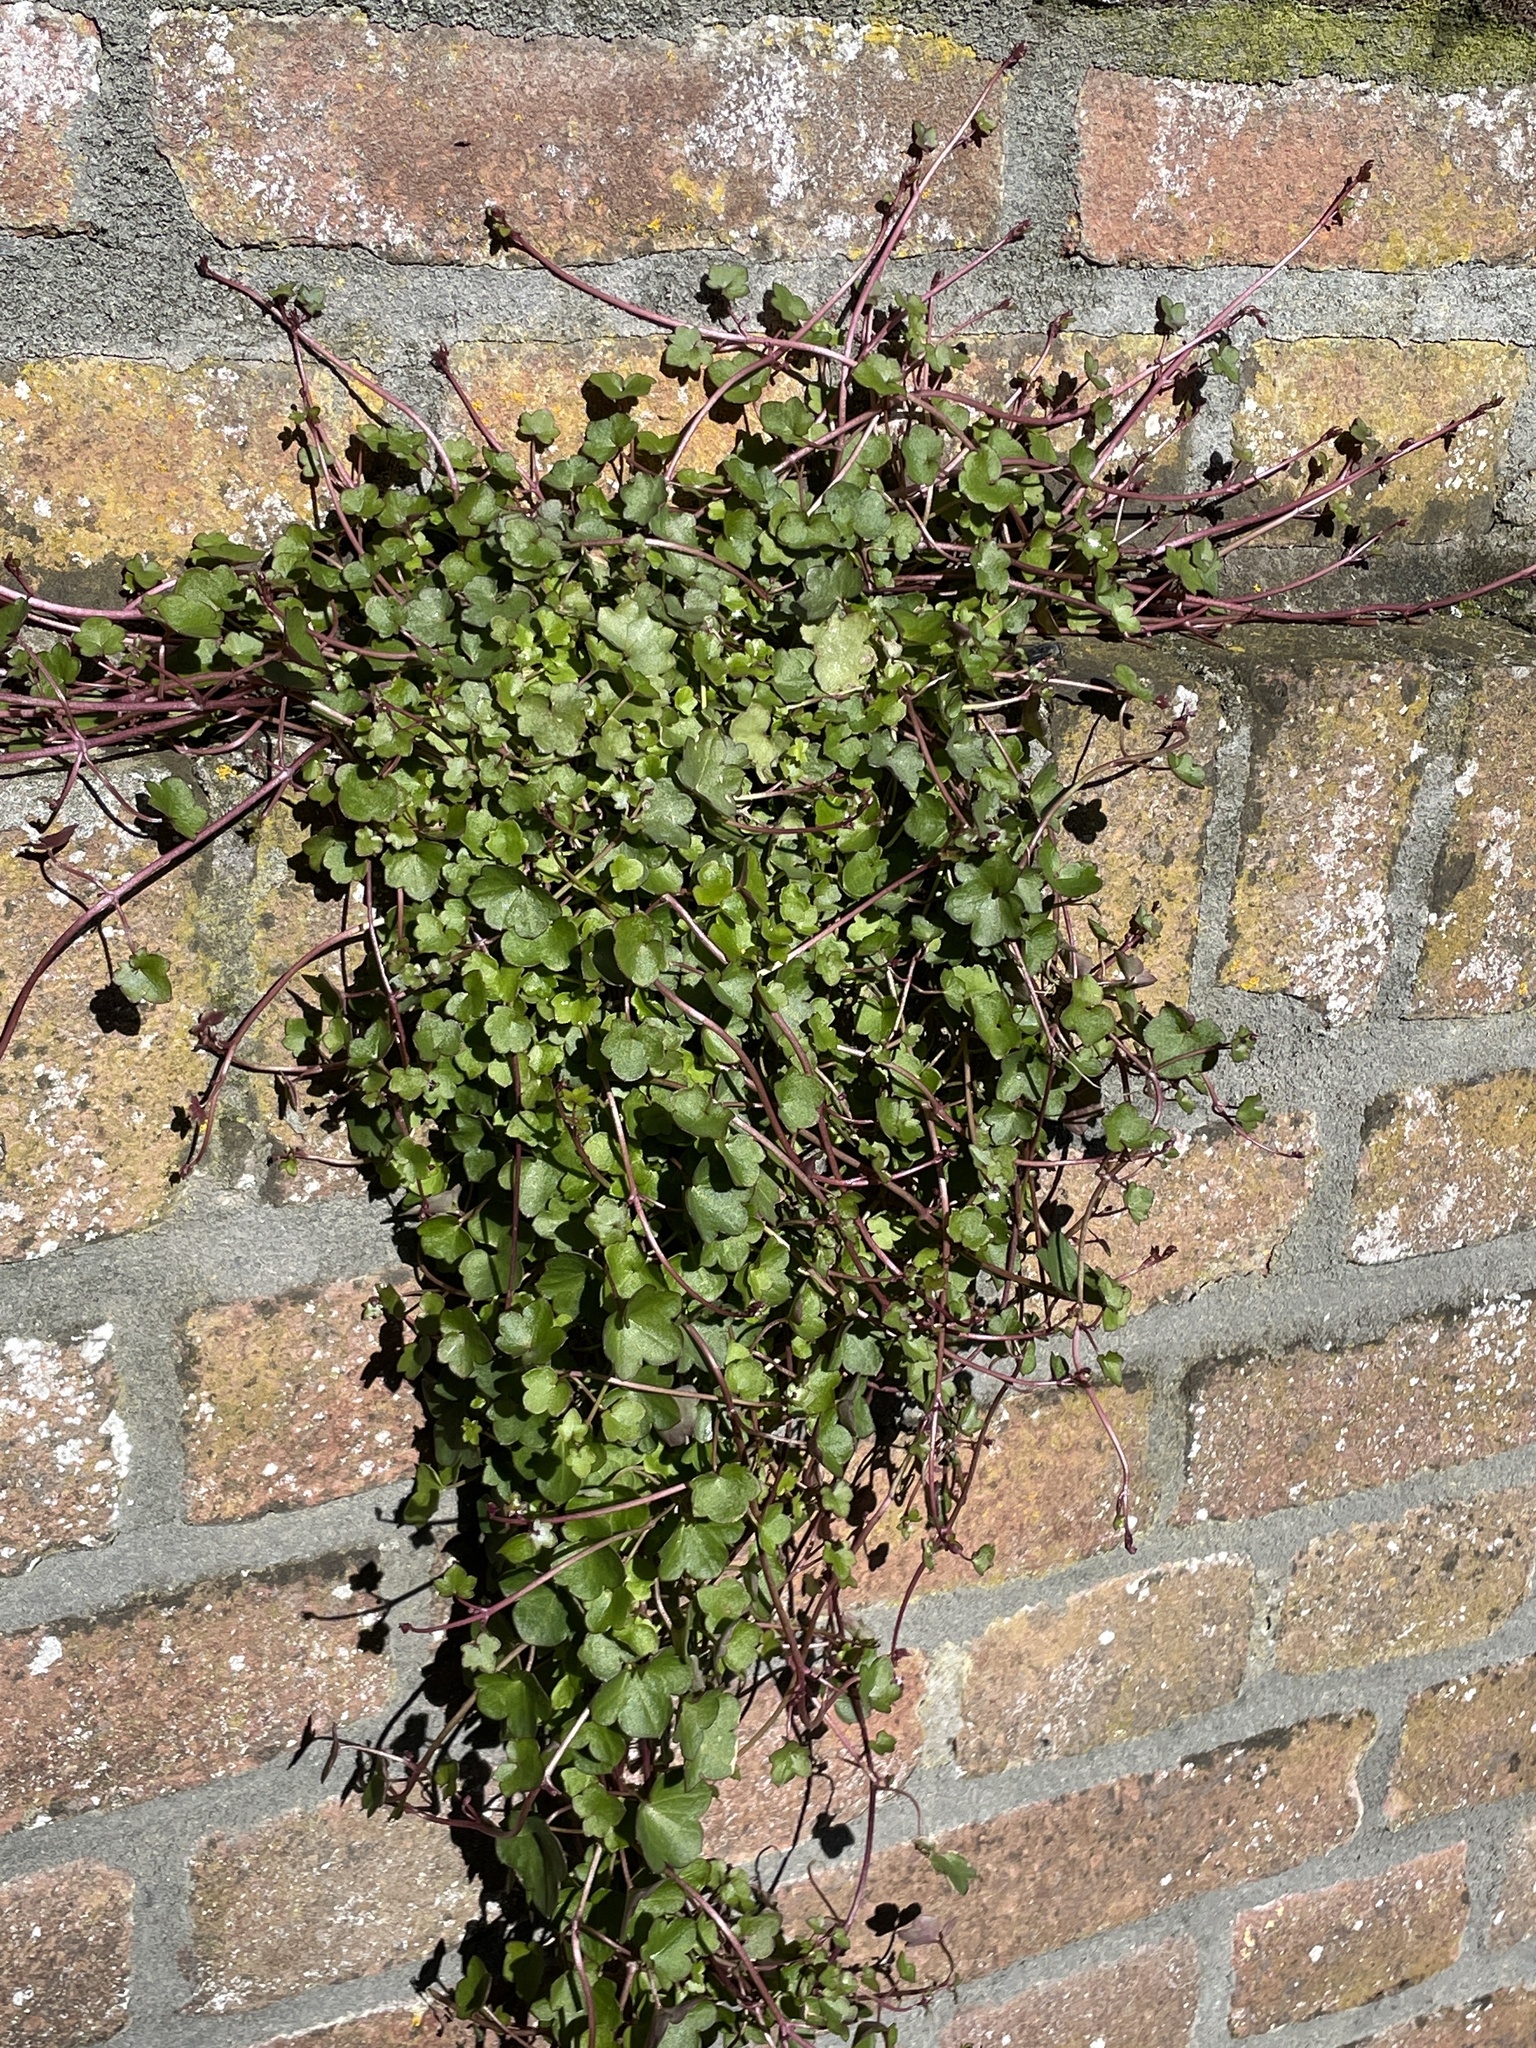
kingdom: Plantae
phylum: Tracheophyta
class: Magnoliopsida
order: Lamiales
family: Plantaginaceae
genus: Cymbalaria
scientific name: Cymbalaria muralis
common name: Ivy-leaved toadflax
